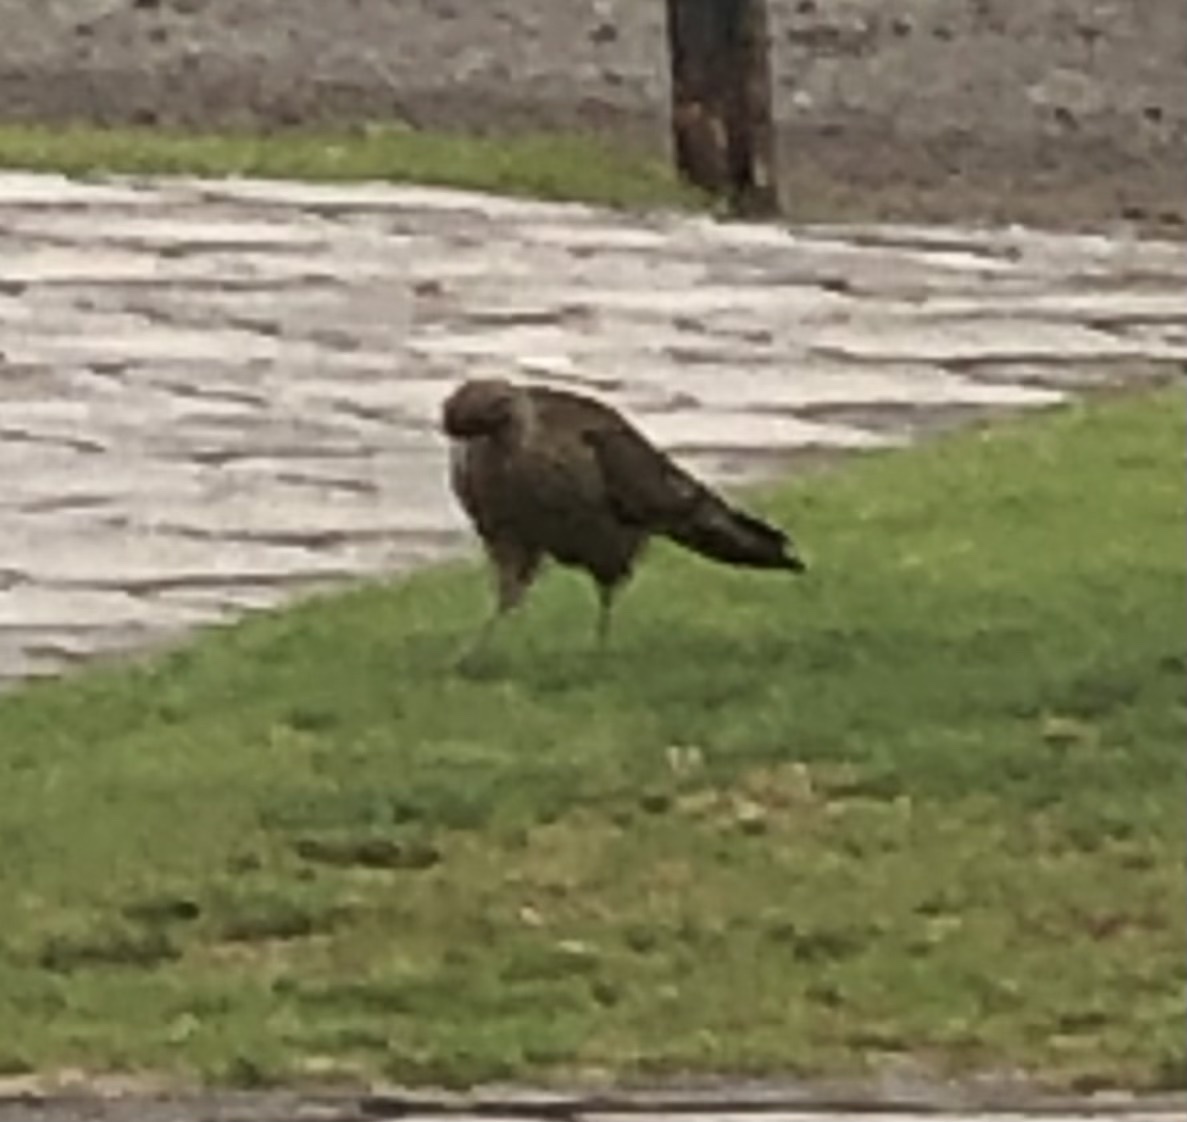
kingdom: Animalia
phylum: Chordata
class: Aves
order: Falconiformes
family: Falconidae
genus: Daptrius
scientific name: Daptrius
